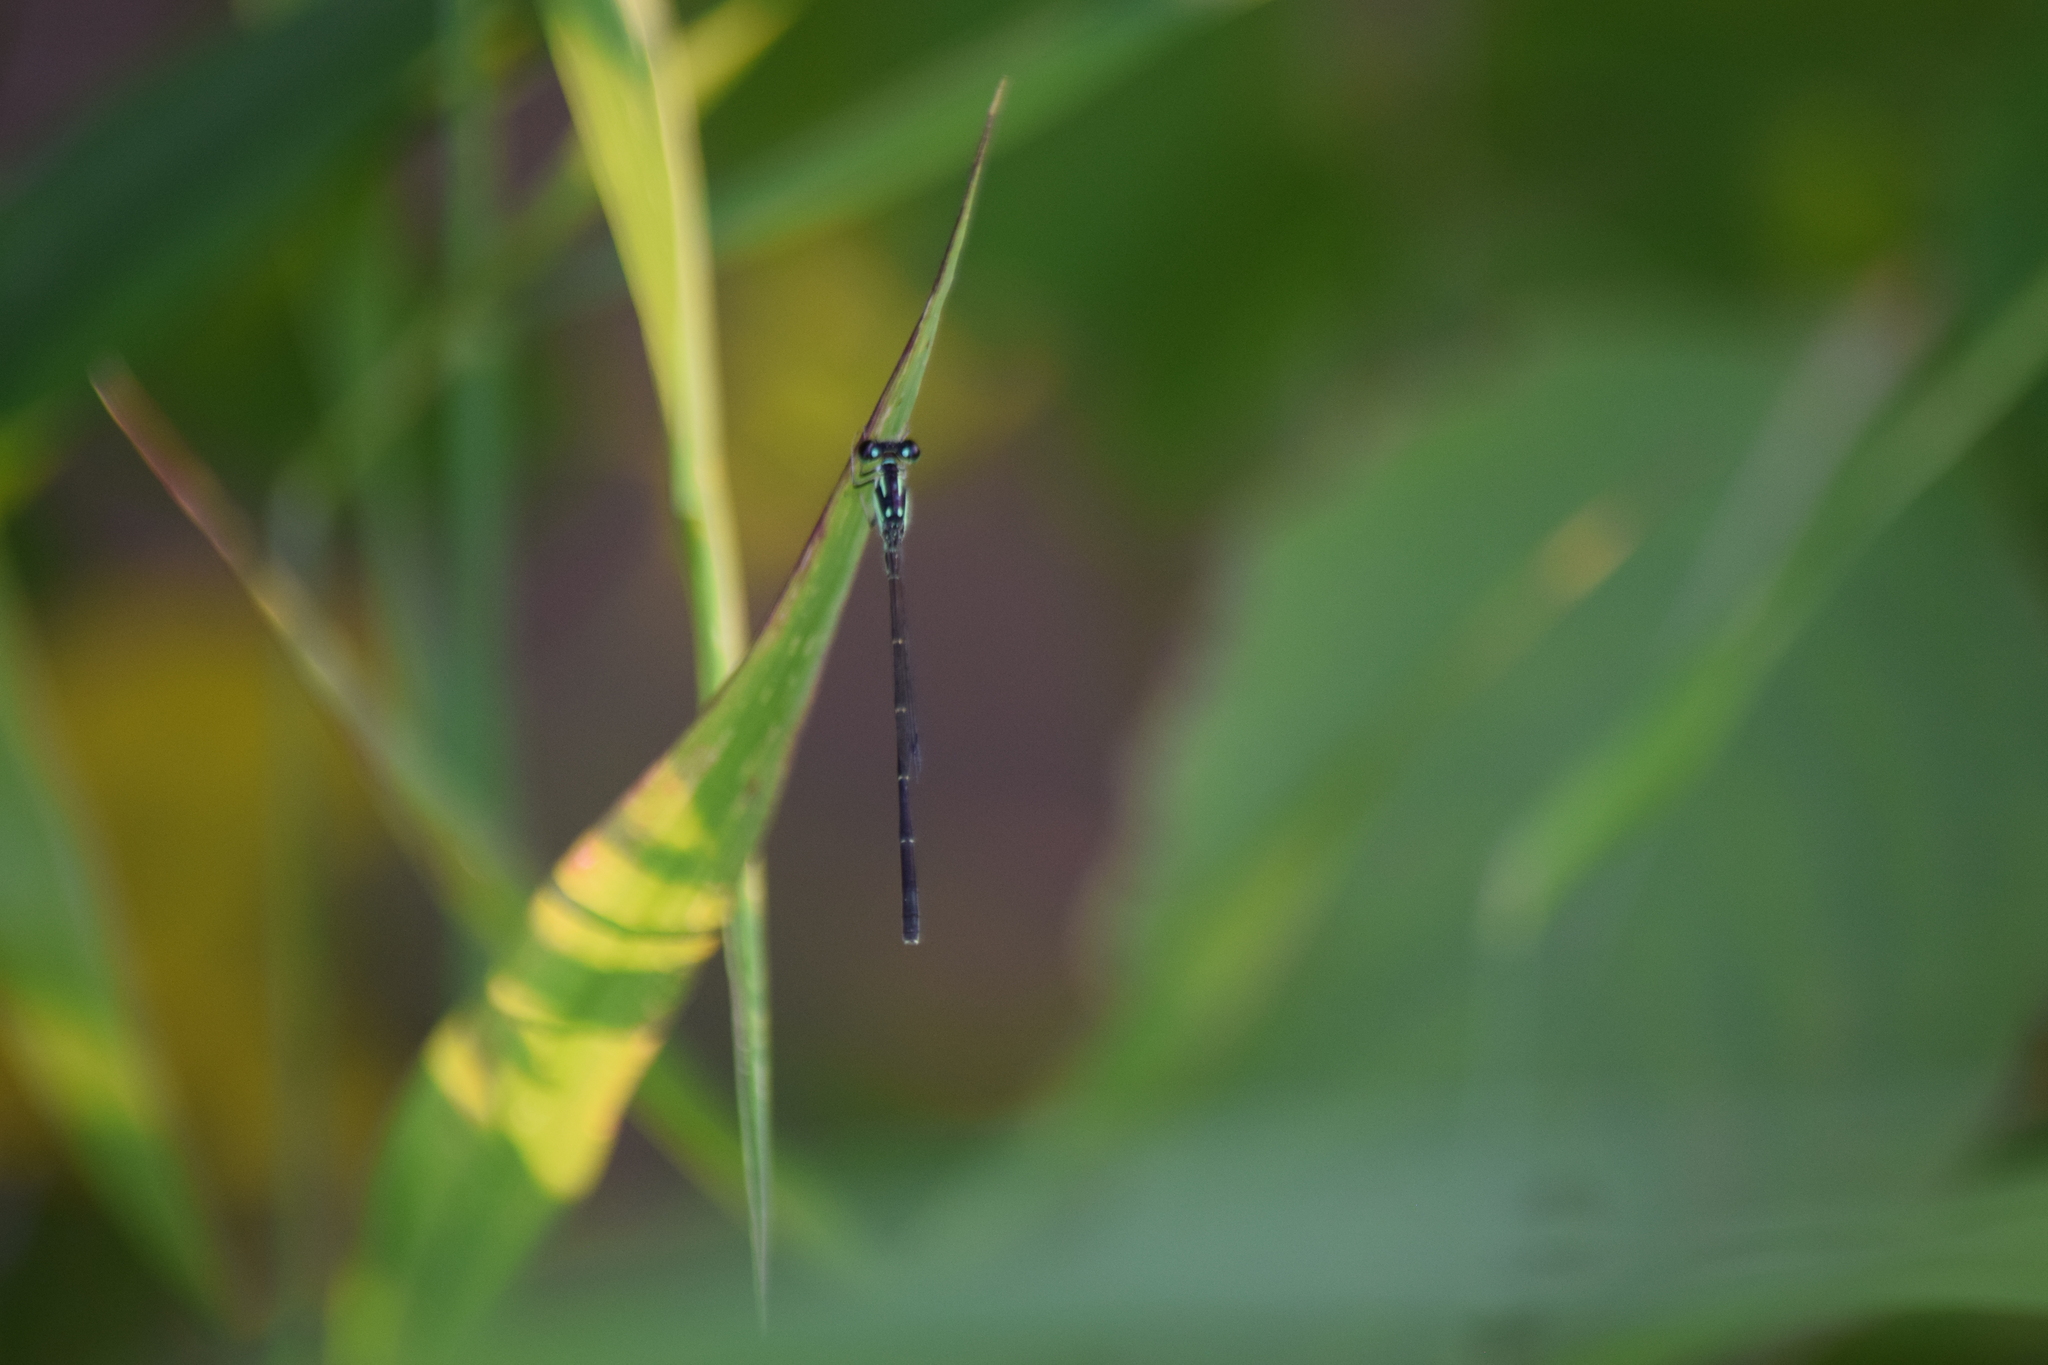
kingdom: Animalia
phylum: Arthropoda
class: Insecta
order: Odonata
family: Coenagrionidae
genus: Ischnura
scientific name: Ischnura posita
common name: Fragile forktail
